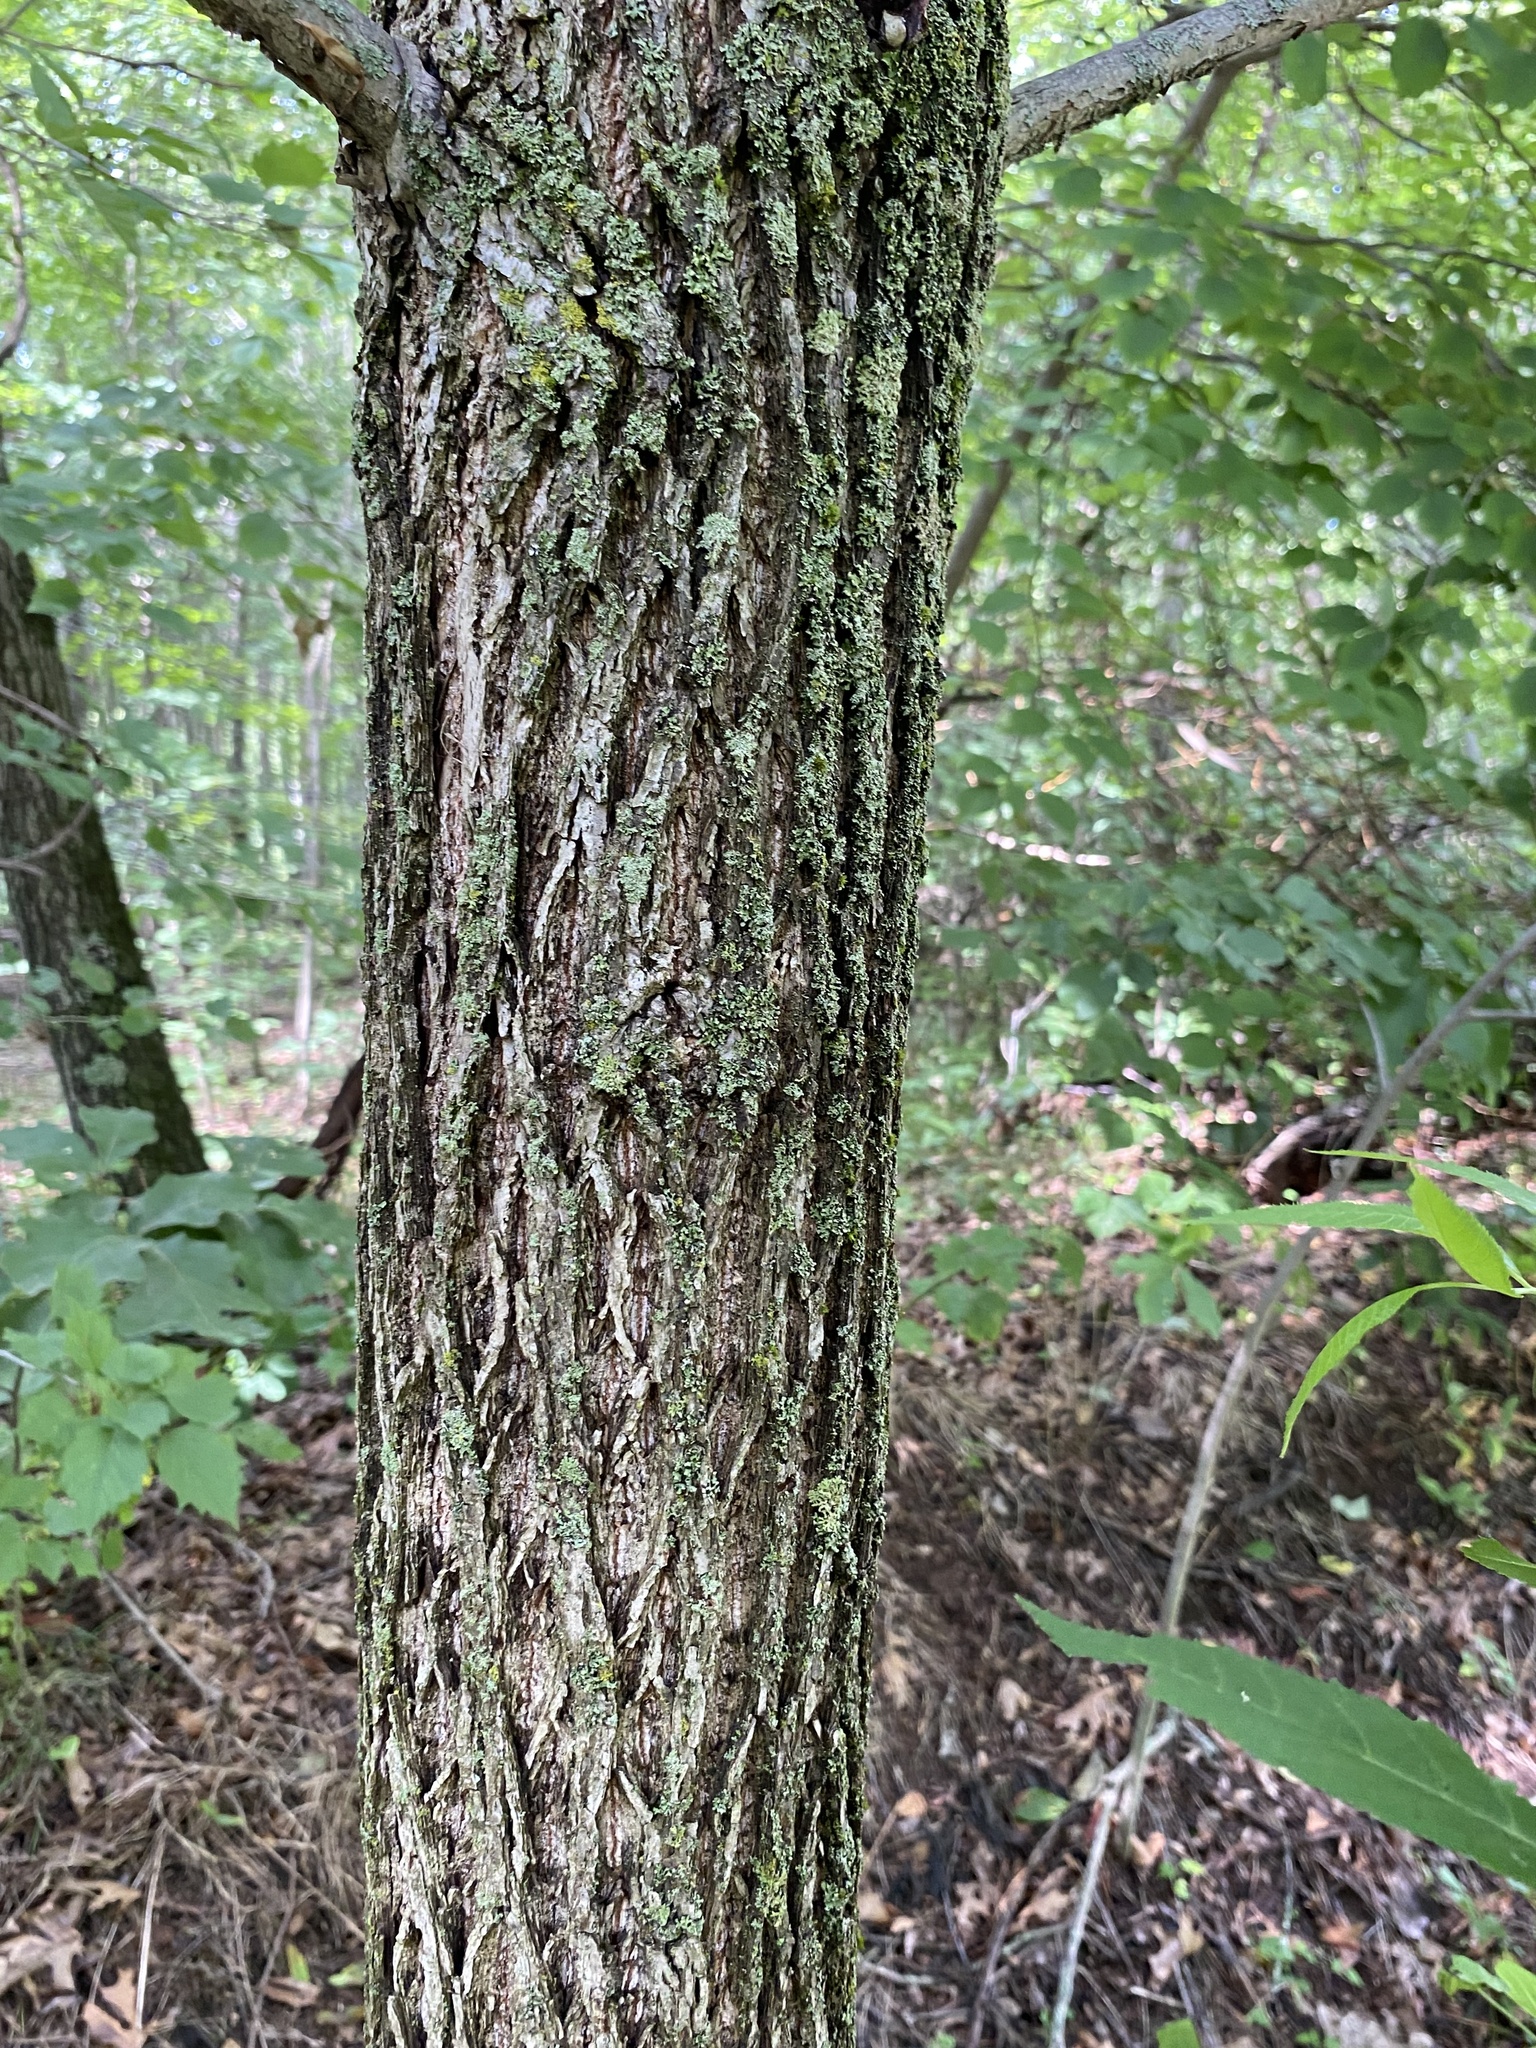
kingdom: Plantae
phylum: Tracheophyta
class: Magnoliopsida
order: Fagales
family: Juglandaceae
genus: Juglans
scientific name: Juglans nigra
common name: Black walnut
